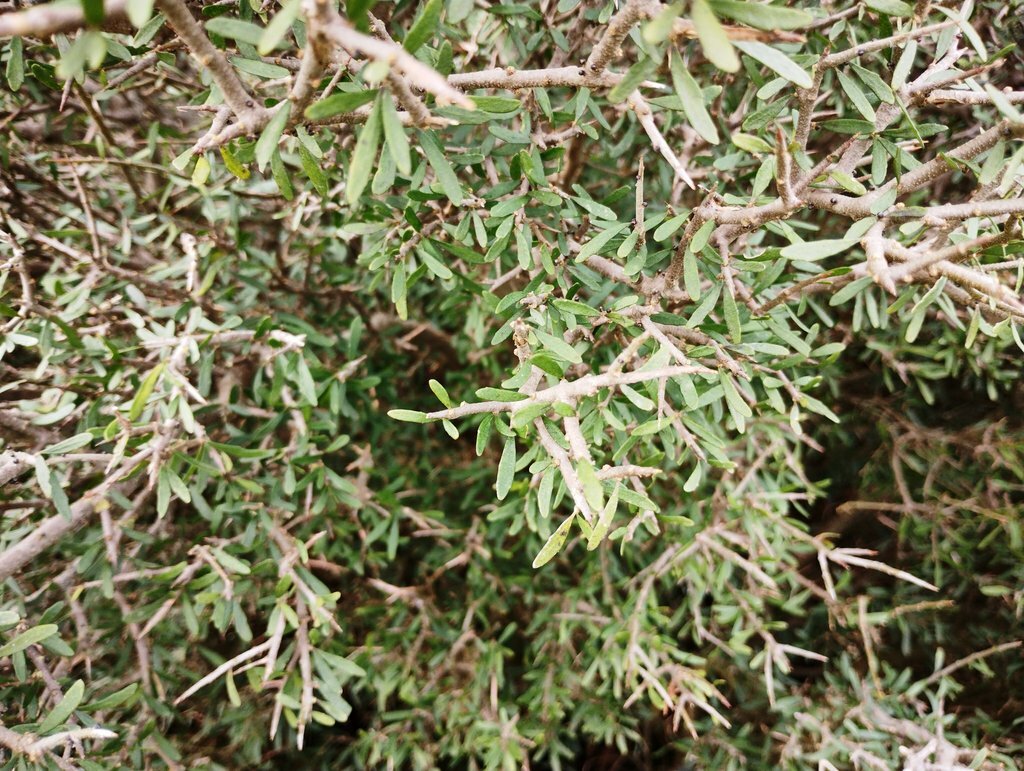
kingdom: Plantae
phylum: Tracheophyta
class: Magnoliopsida
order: Malpighiales
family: Violaceae
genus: Melicytus
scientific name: Melicytus dentatus
